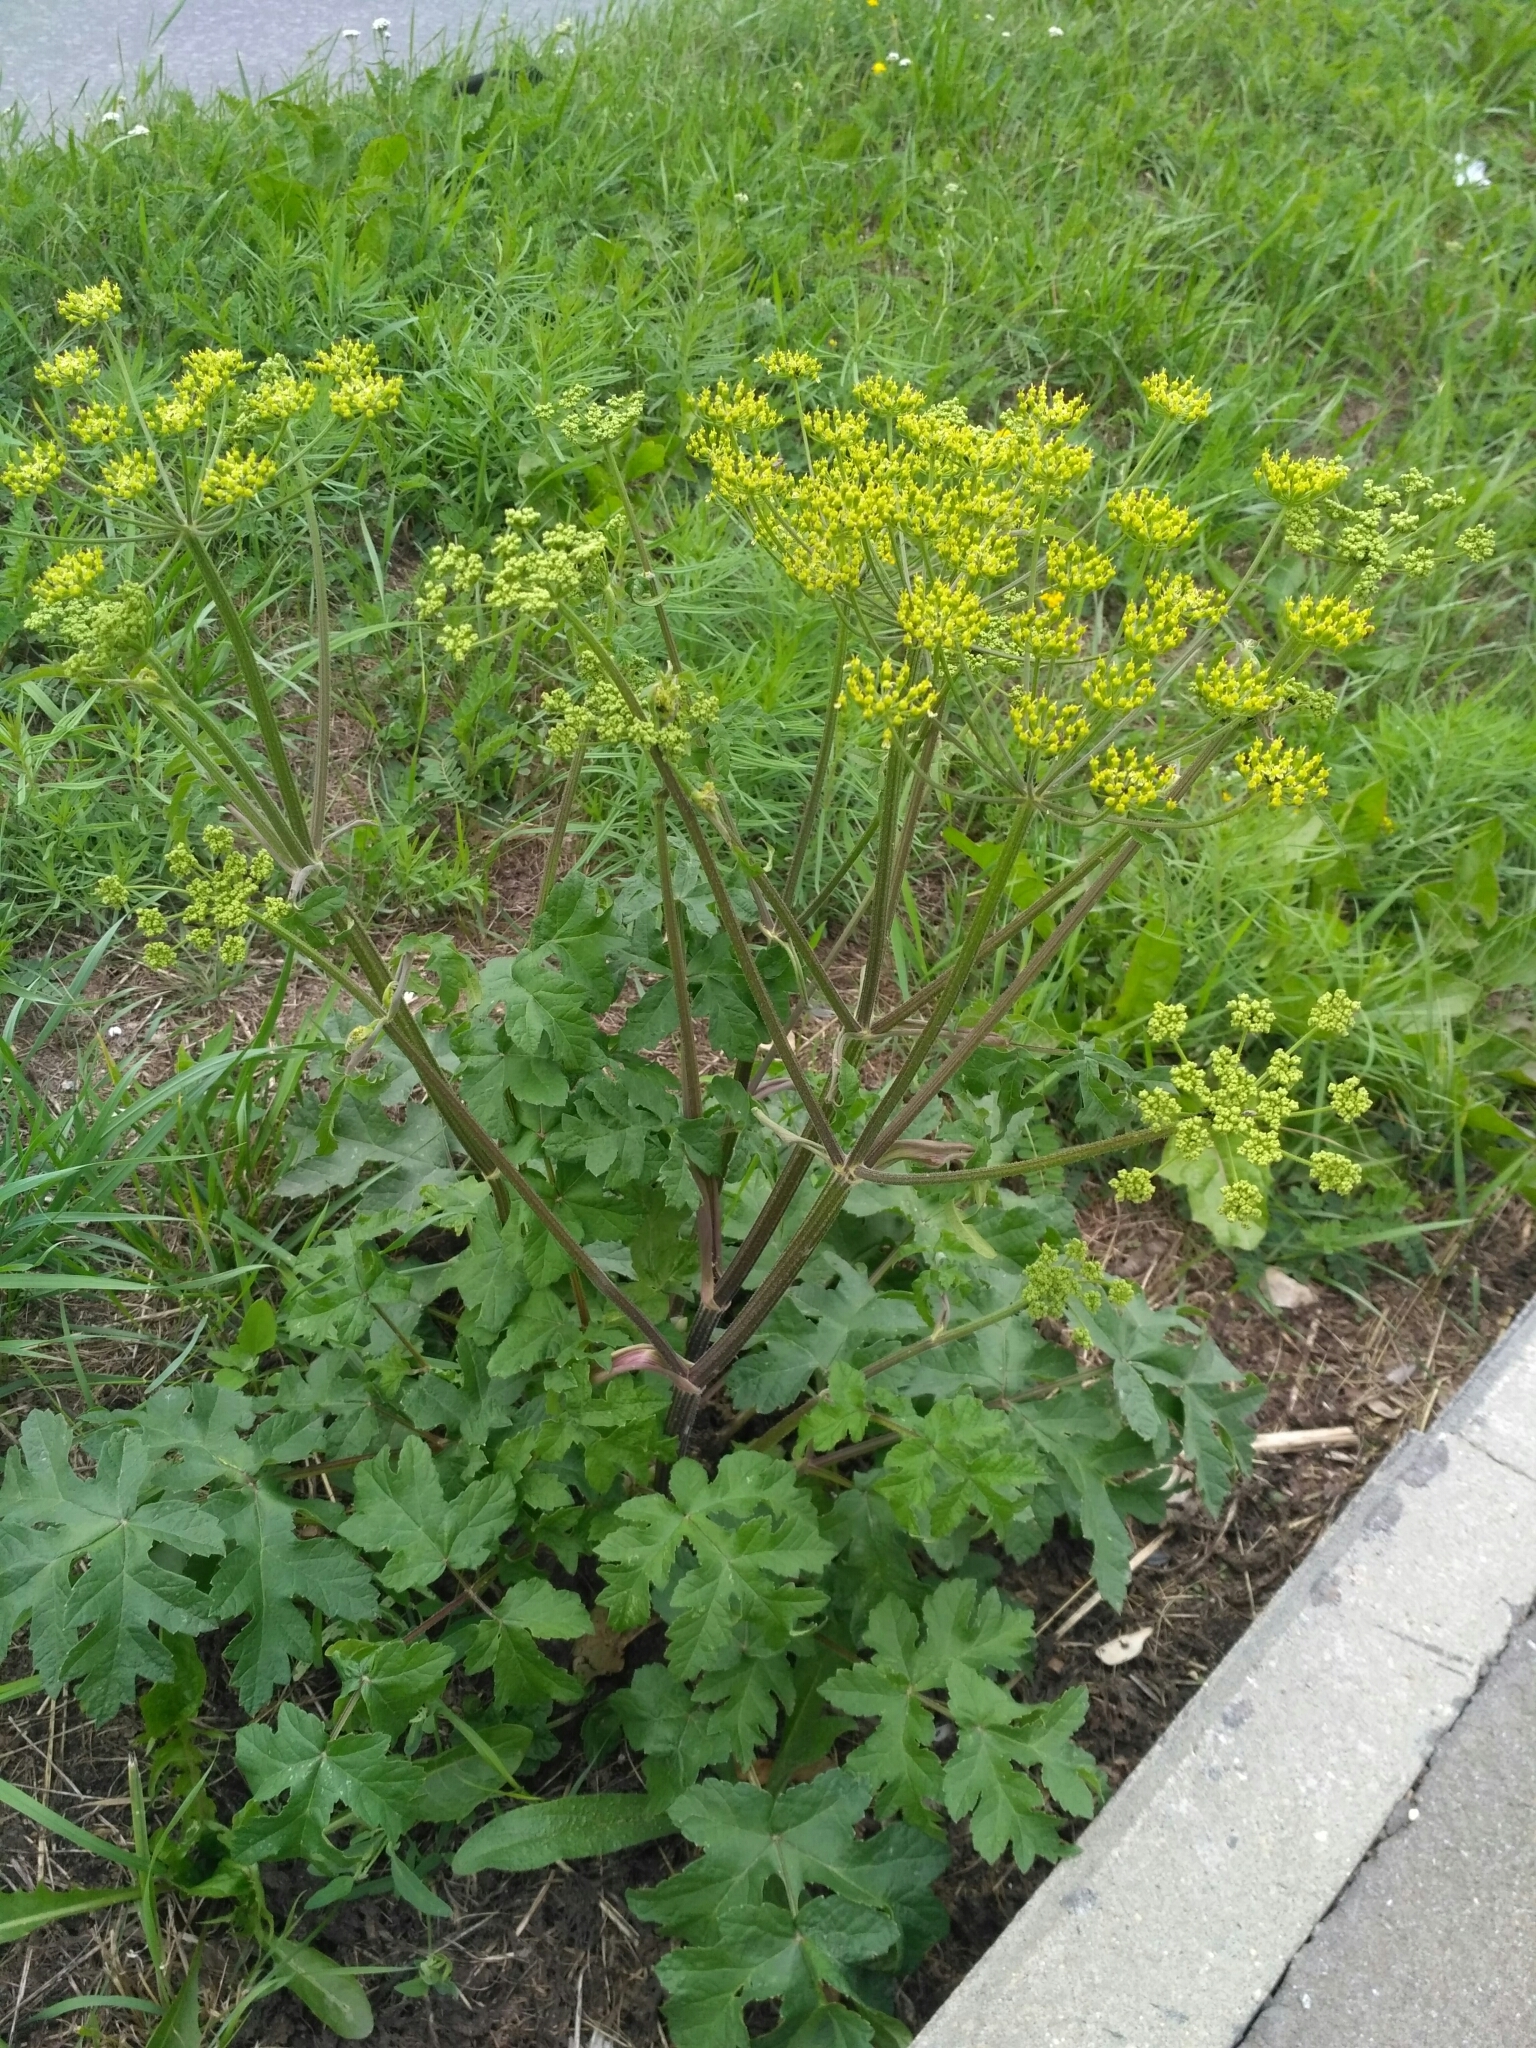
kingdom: Plantae
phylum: Tracheophyta
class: Magnoliopsida
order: Apiales
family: Apiaceae
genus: Heracleum
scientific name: Heracleum sphondylium
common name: Hogweed
